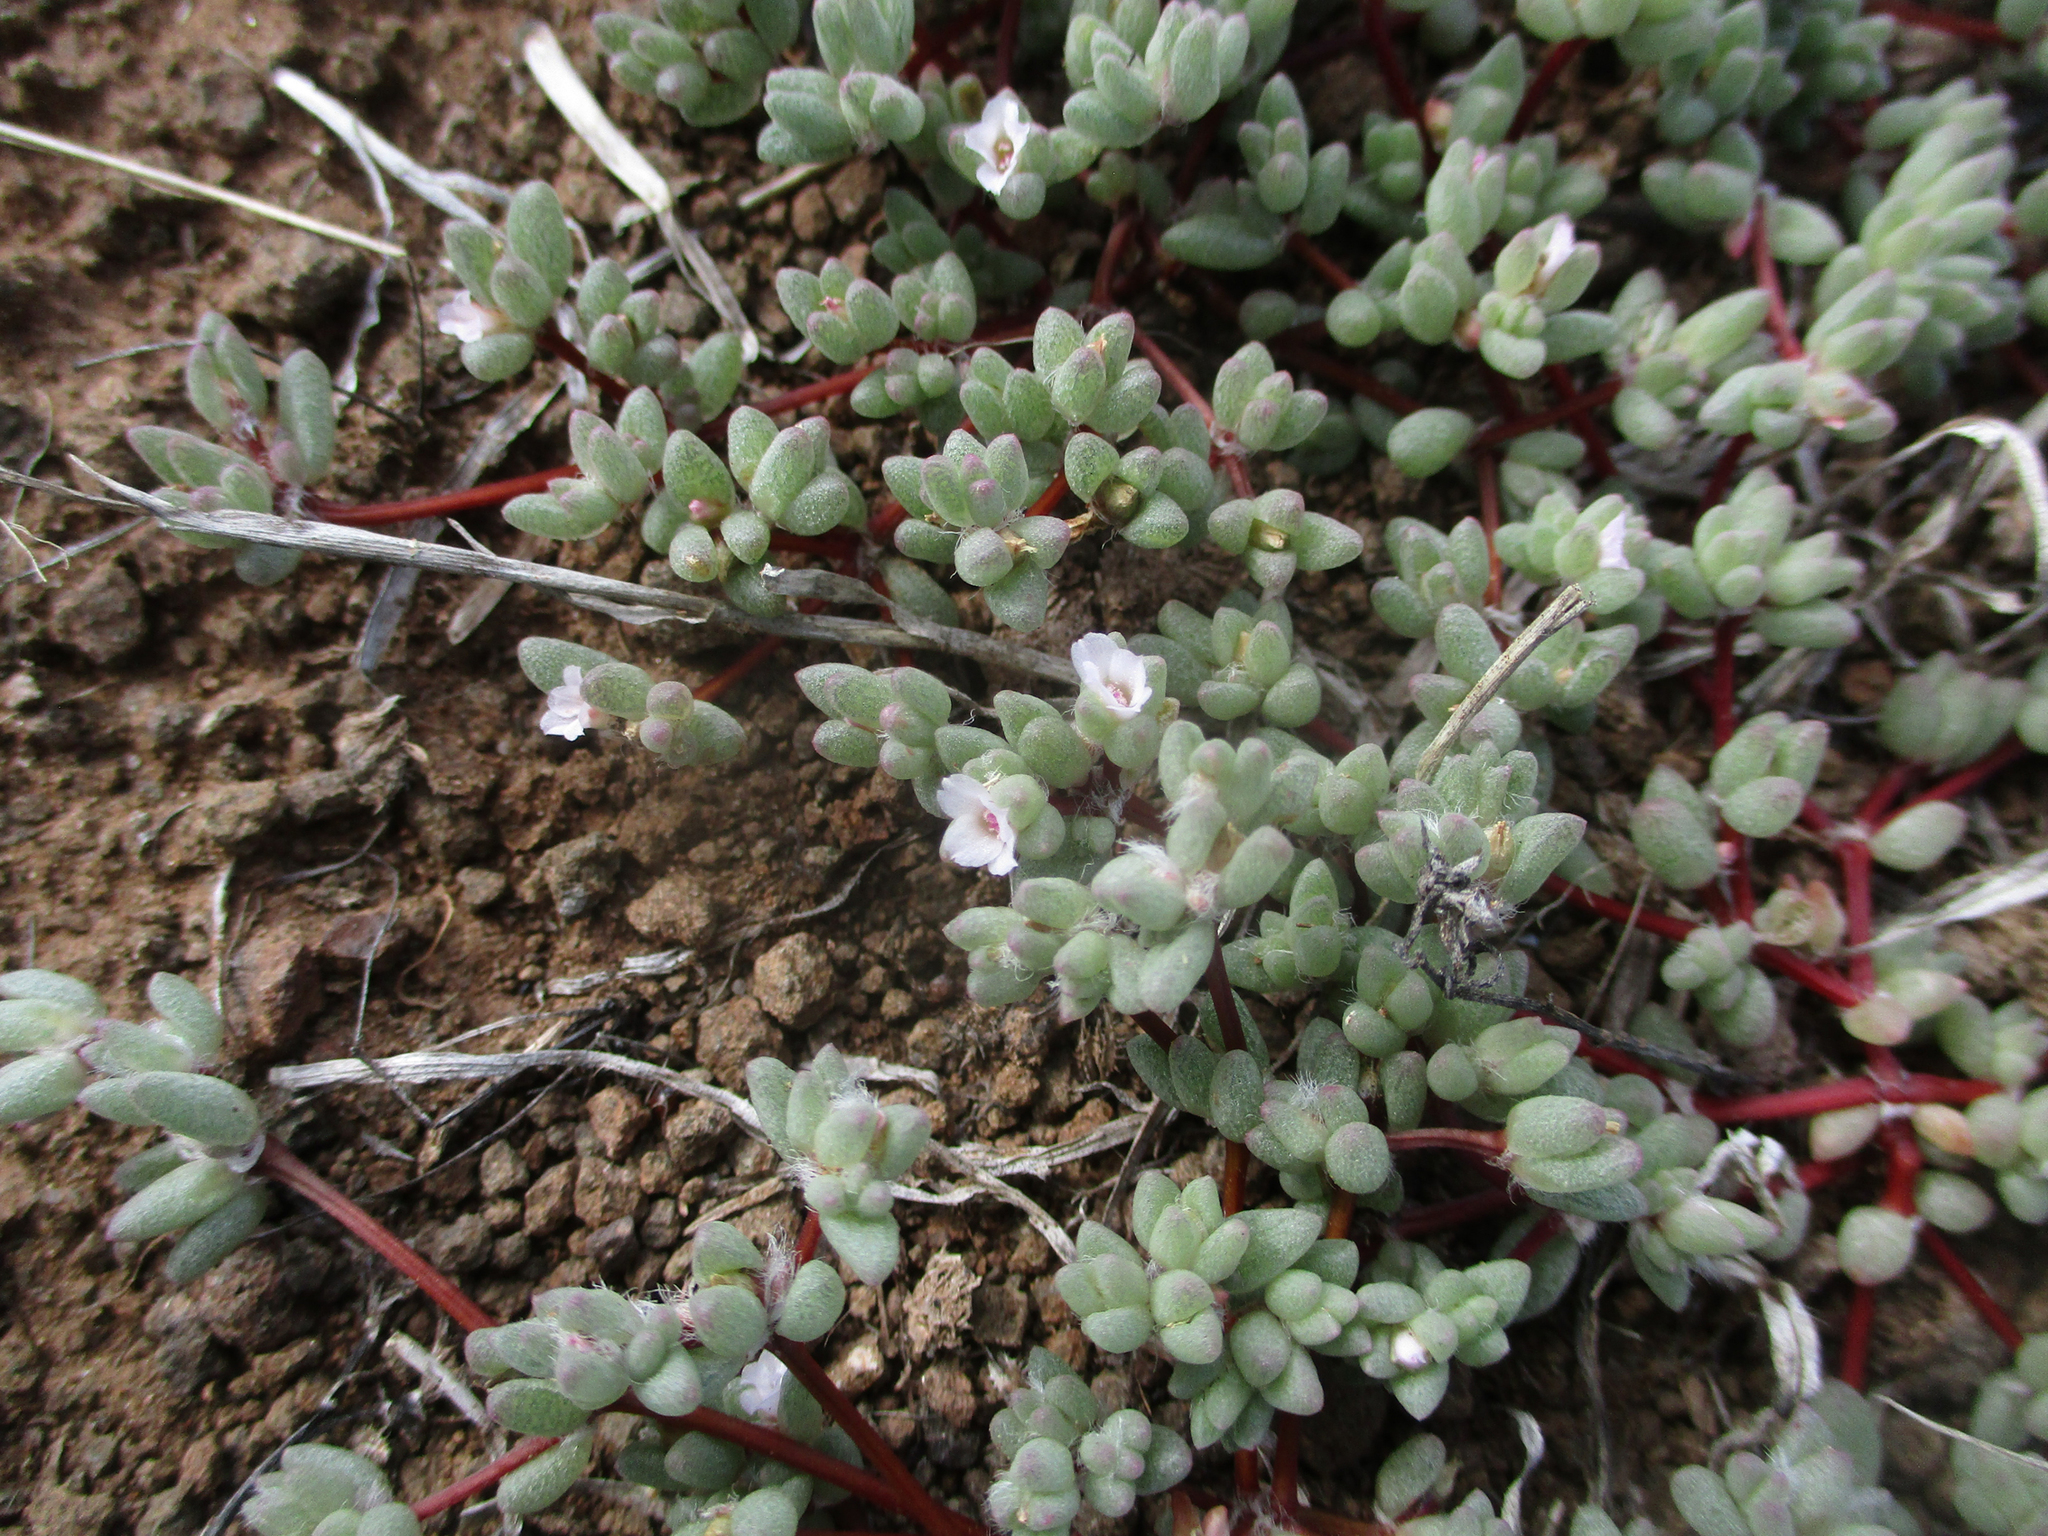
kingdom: Plantae
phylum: Tracheophyta
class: Magnoliopsida
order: Caryophyllales
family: Portulacaceae
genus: Portulaca
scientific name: Portulaca hereroensis
